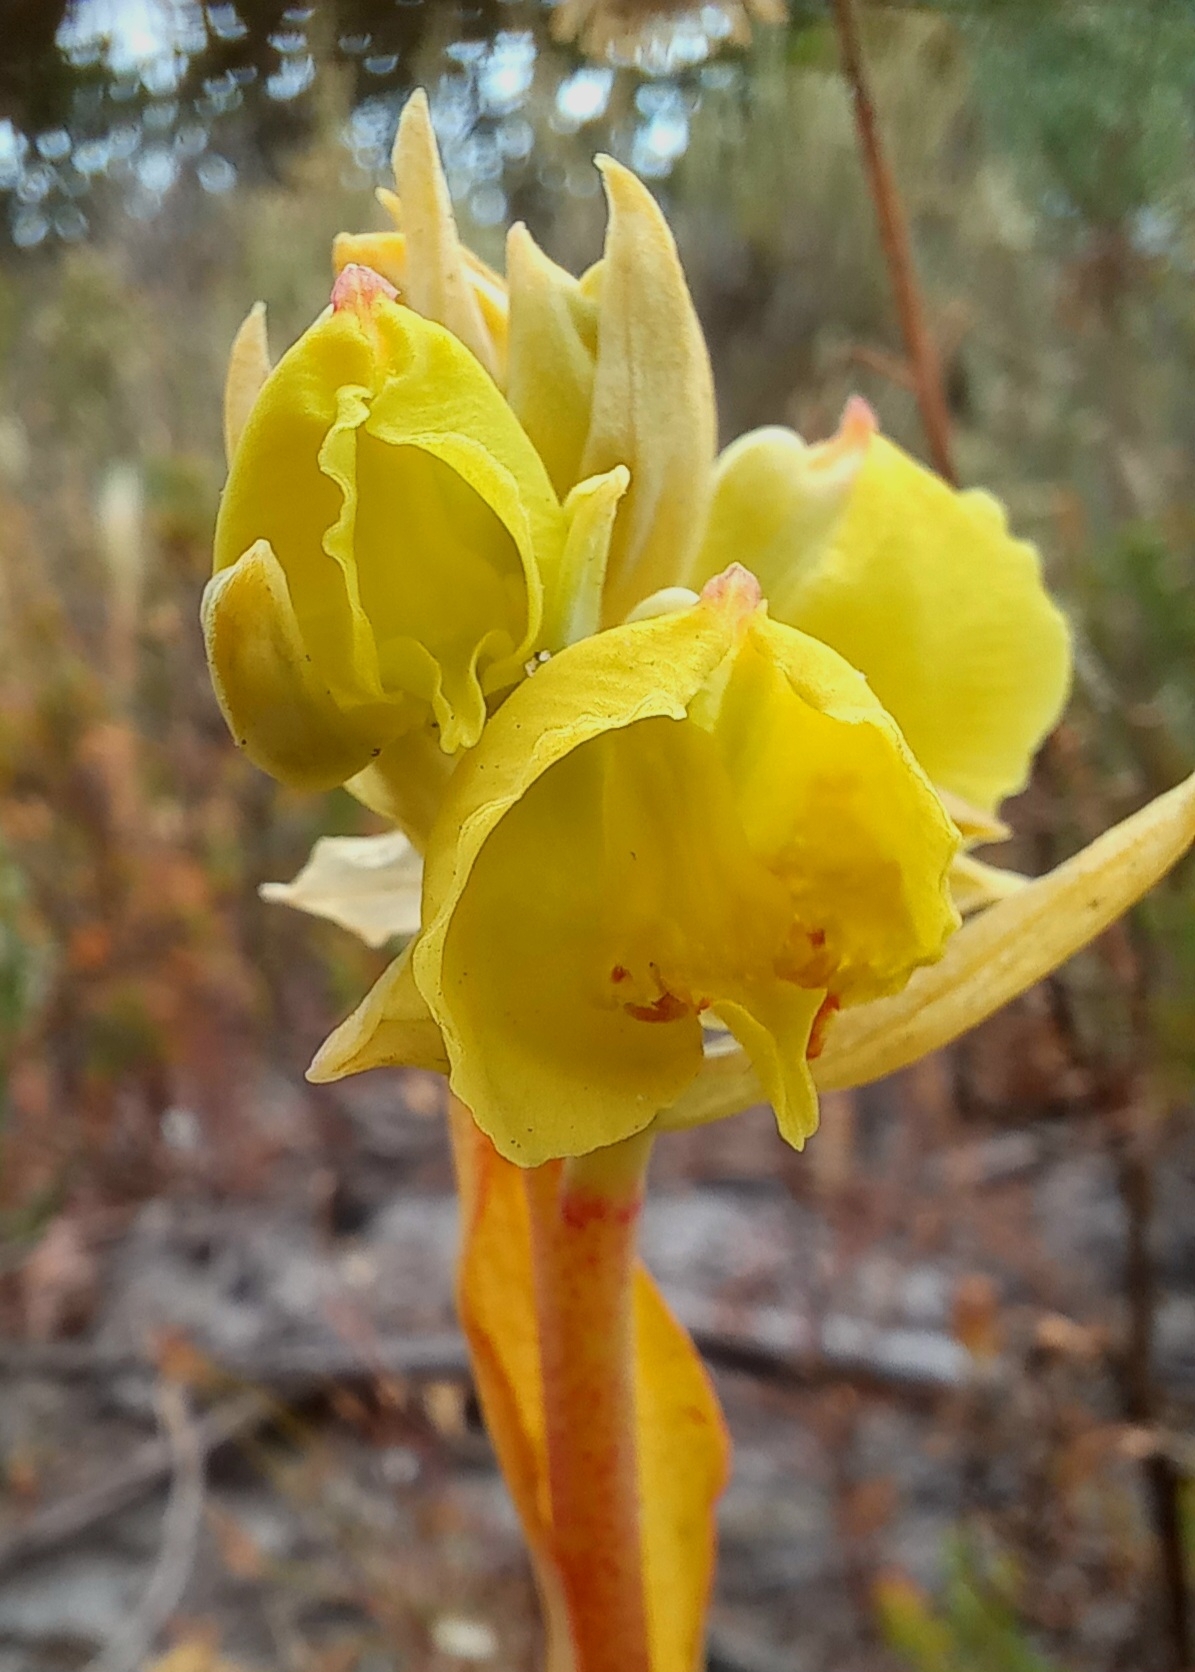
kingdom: Plantae
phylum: Tracheophyta
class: Liliopsida
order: Asparagales
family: Orchidaceae
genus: Pterygodium
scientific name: Pterygodium acutifolium
